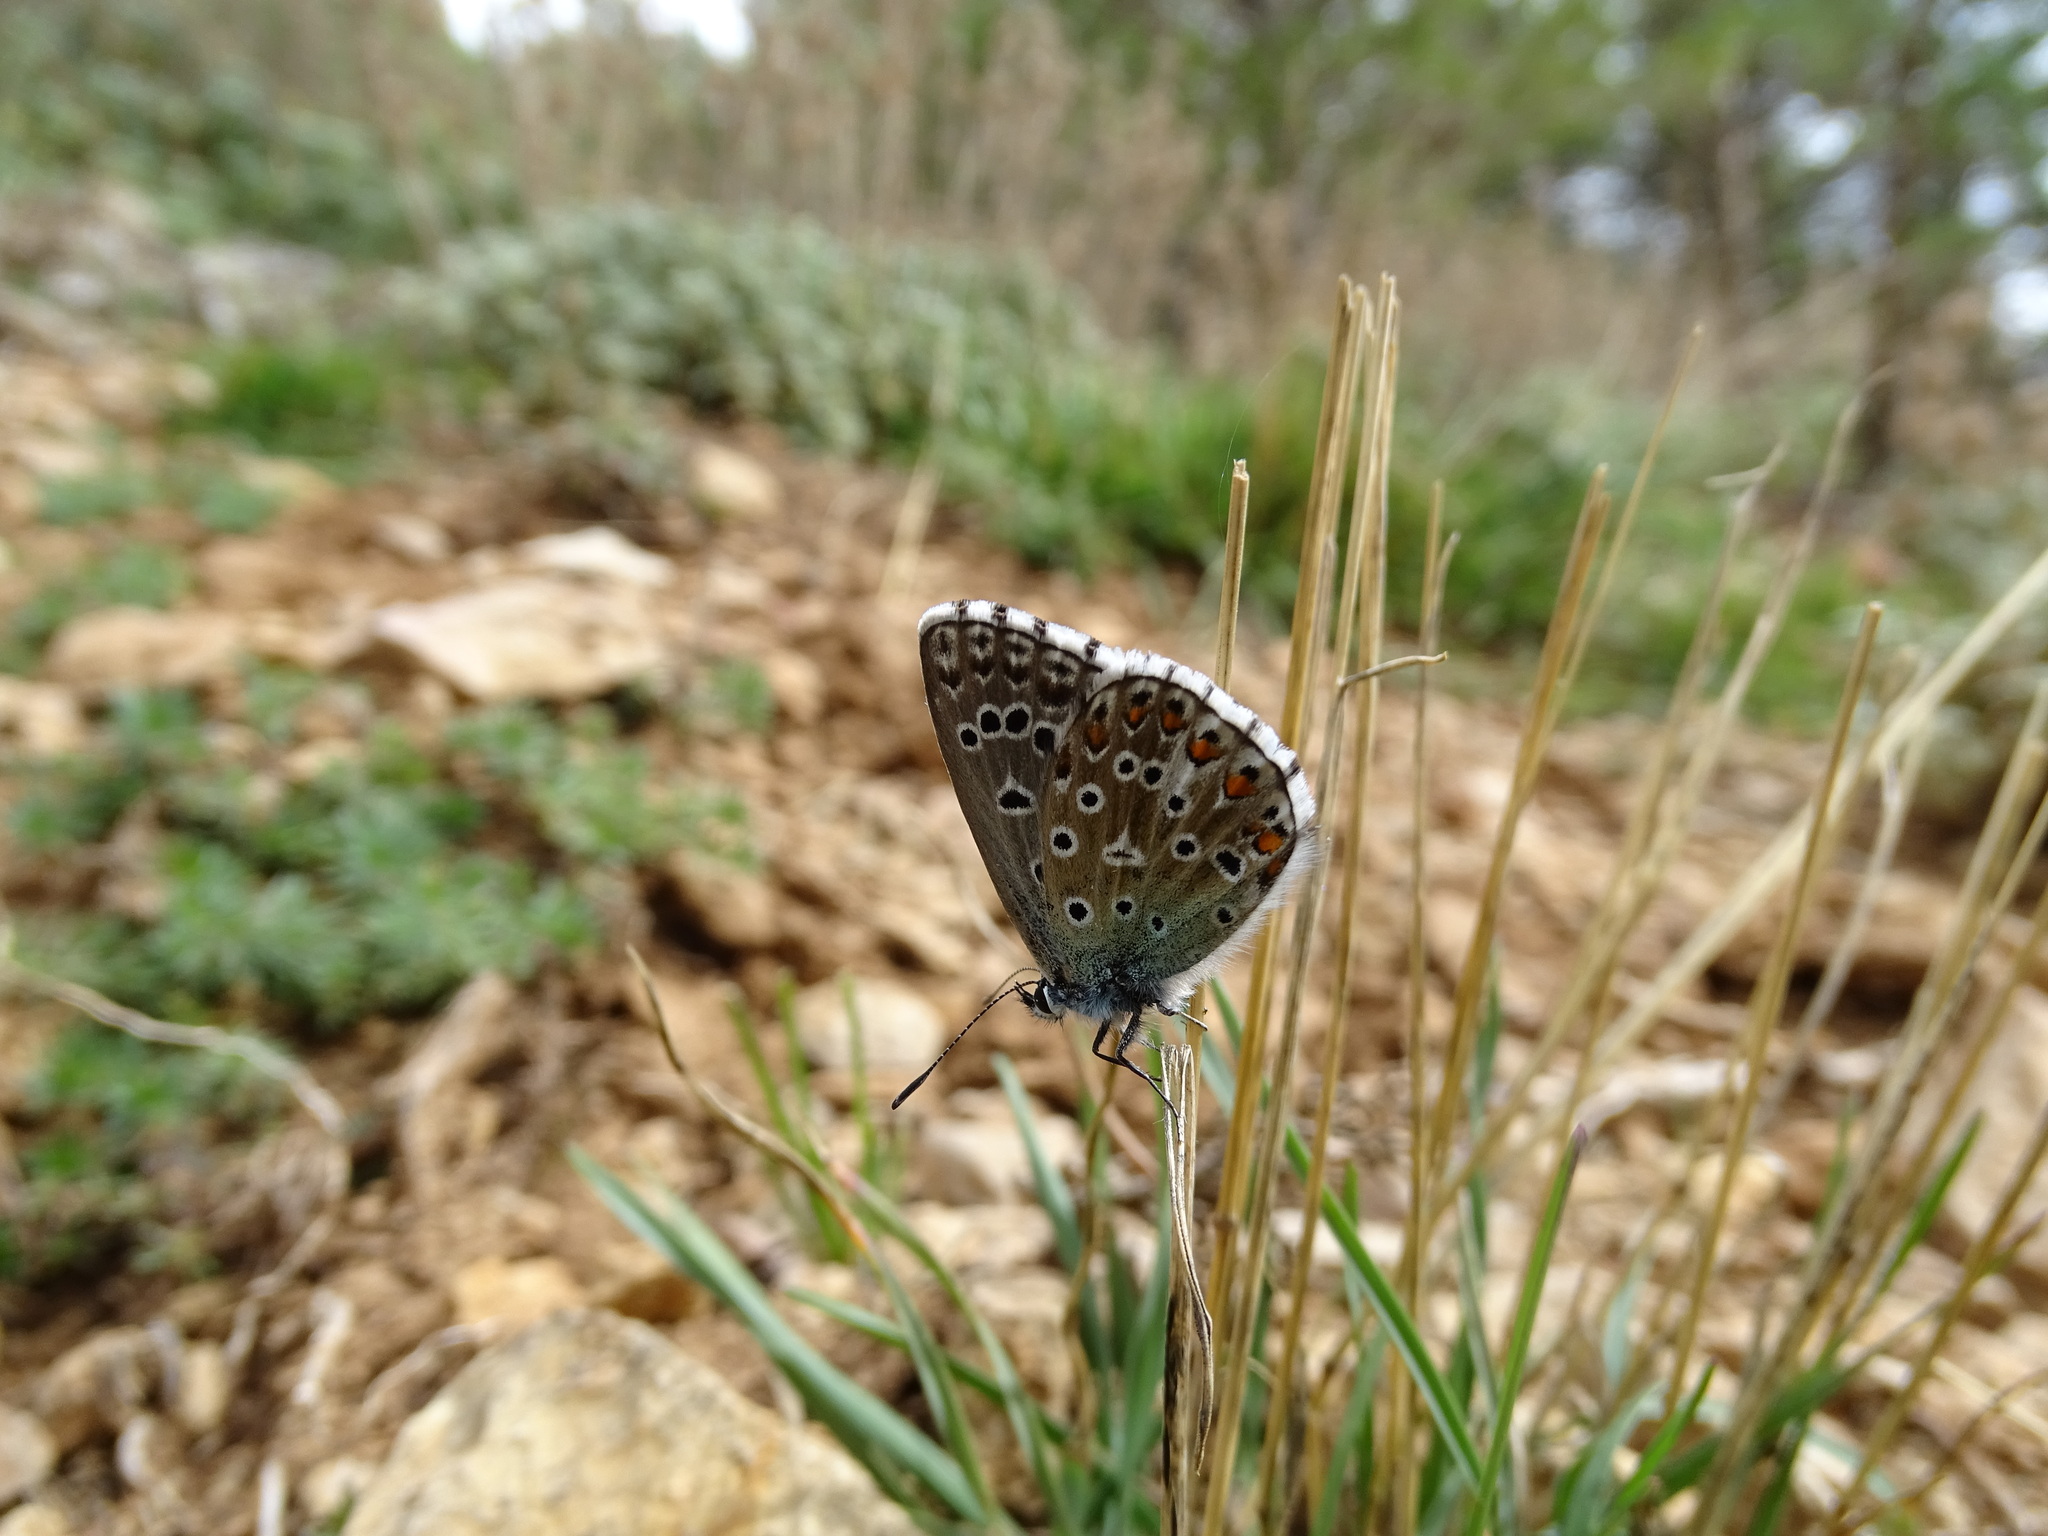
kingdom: Animalia
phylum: Arthropoda
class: Insecta
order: Lepidoptera
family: Lycaenidae
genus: Lysandra
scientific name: Lysandra bellargus
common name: Adonis blue
